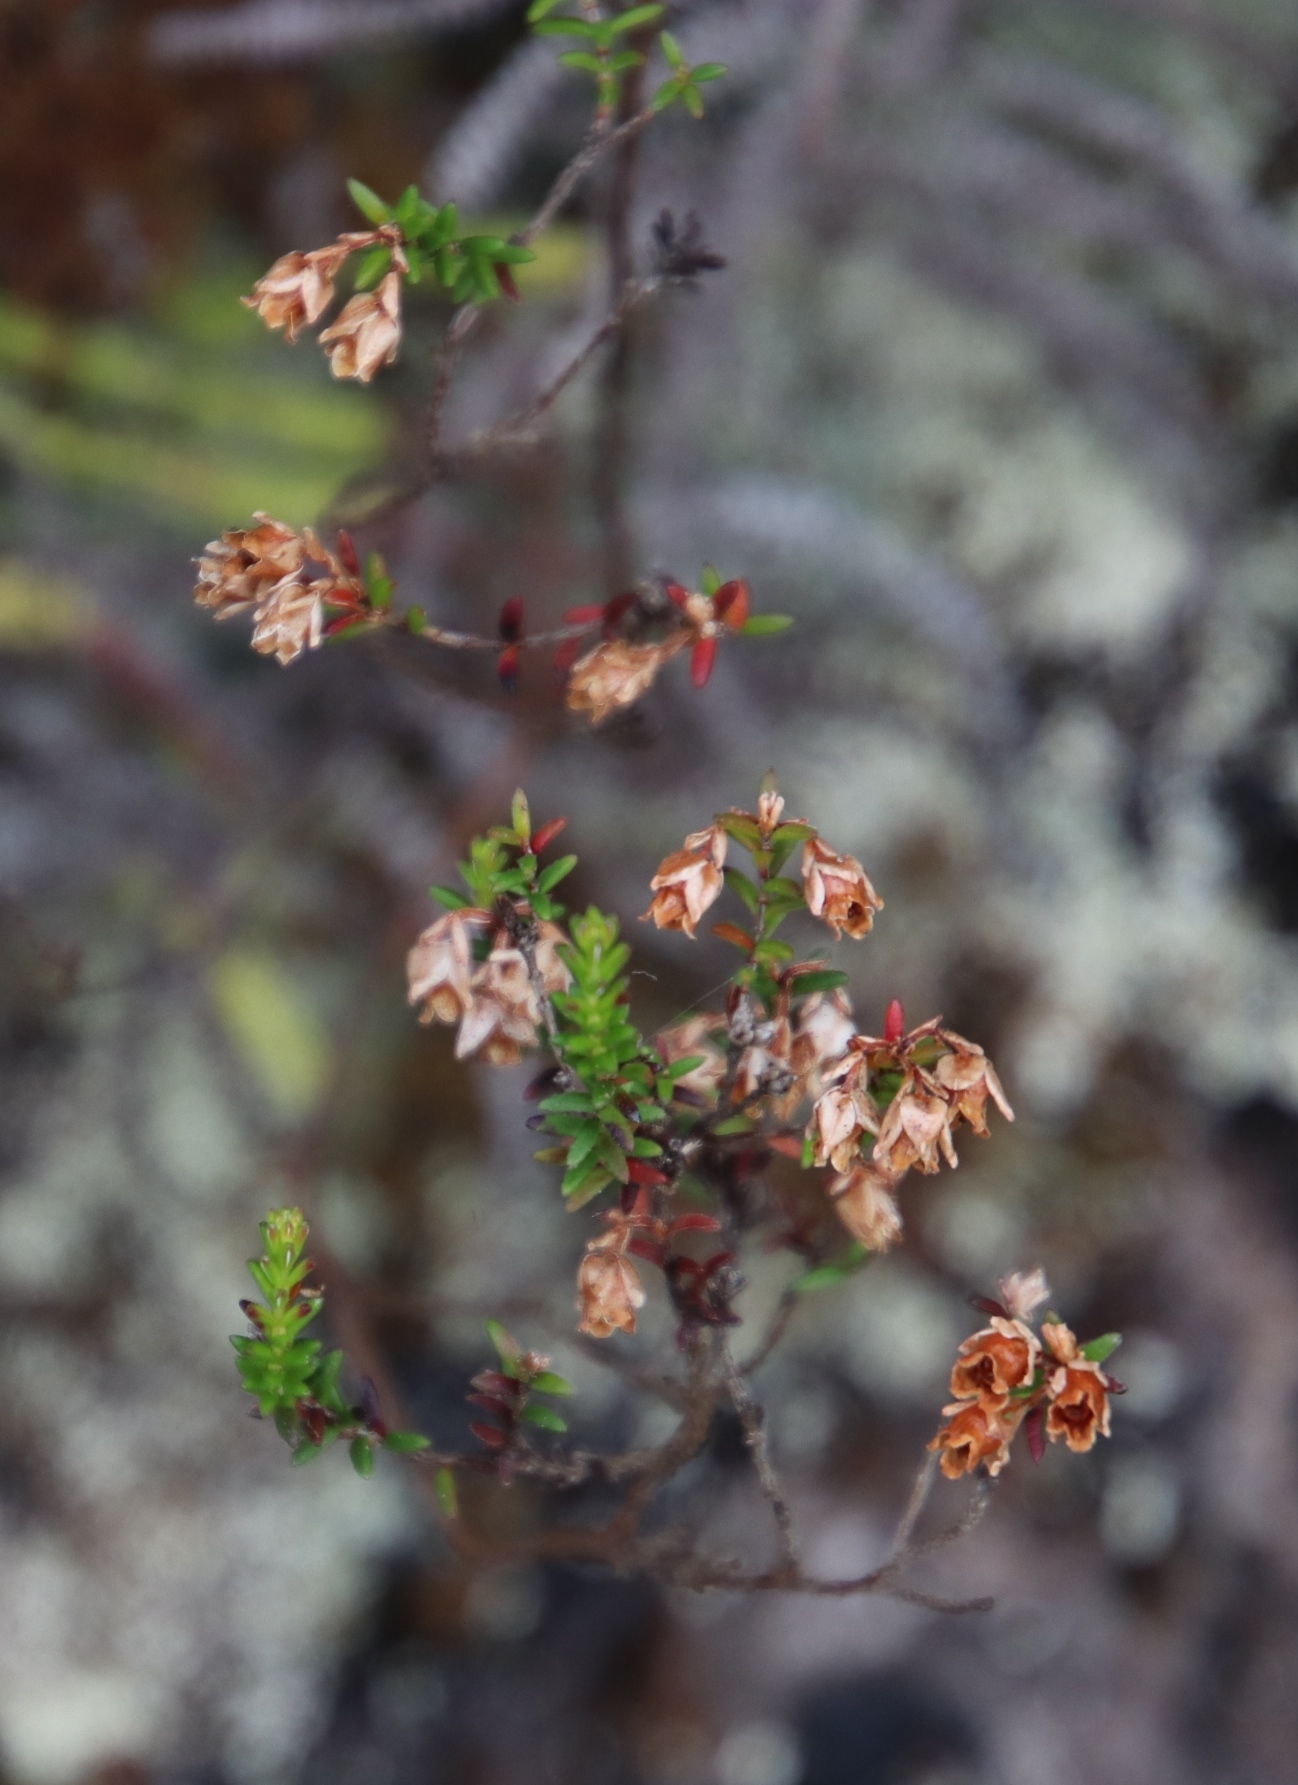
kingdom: Plantae
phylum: Tracheophyta
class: Magnoliopsida
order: Ericales
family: Ericaceae
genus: Erica
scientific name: Erica brevifolia
